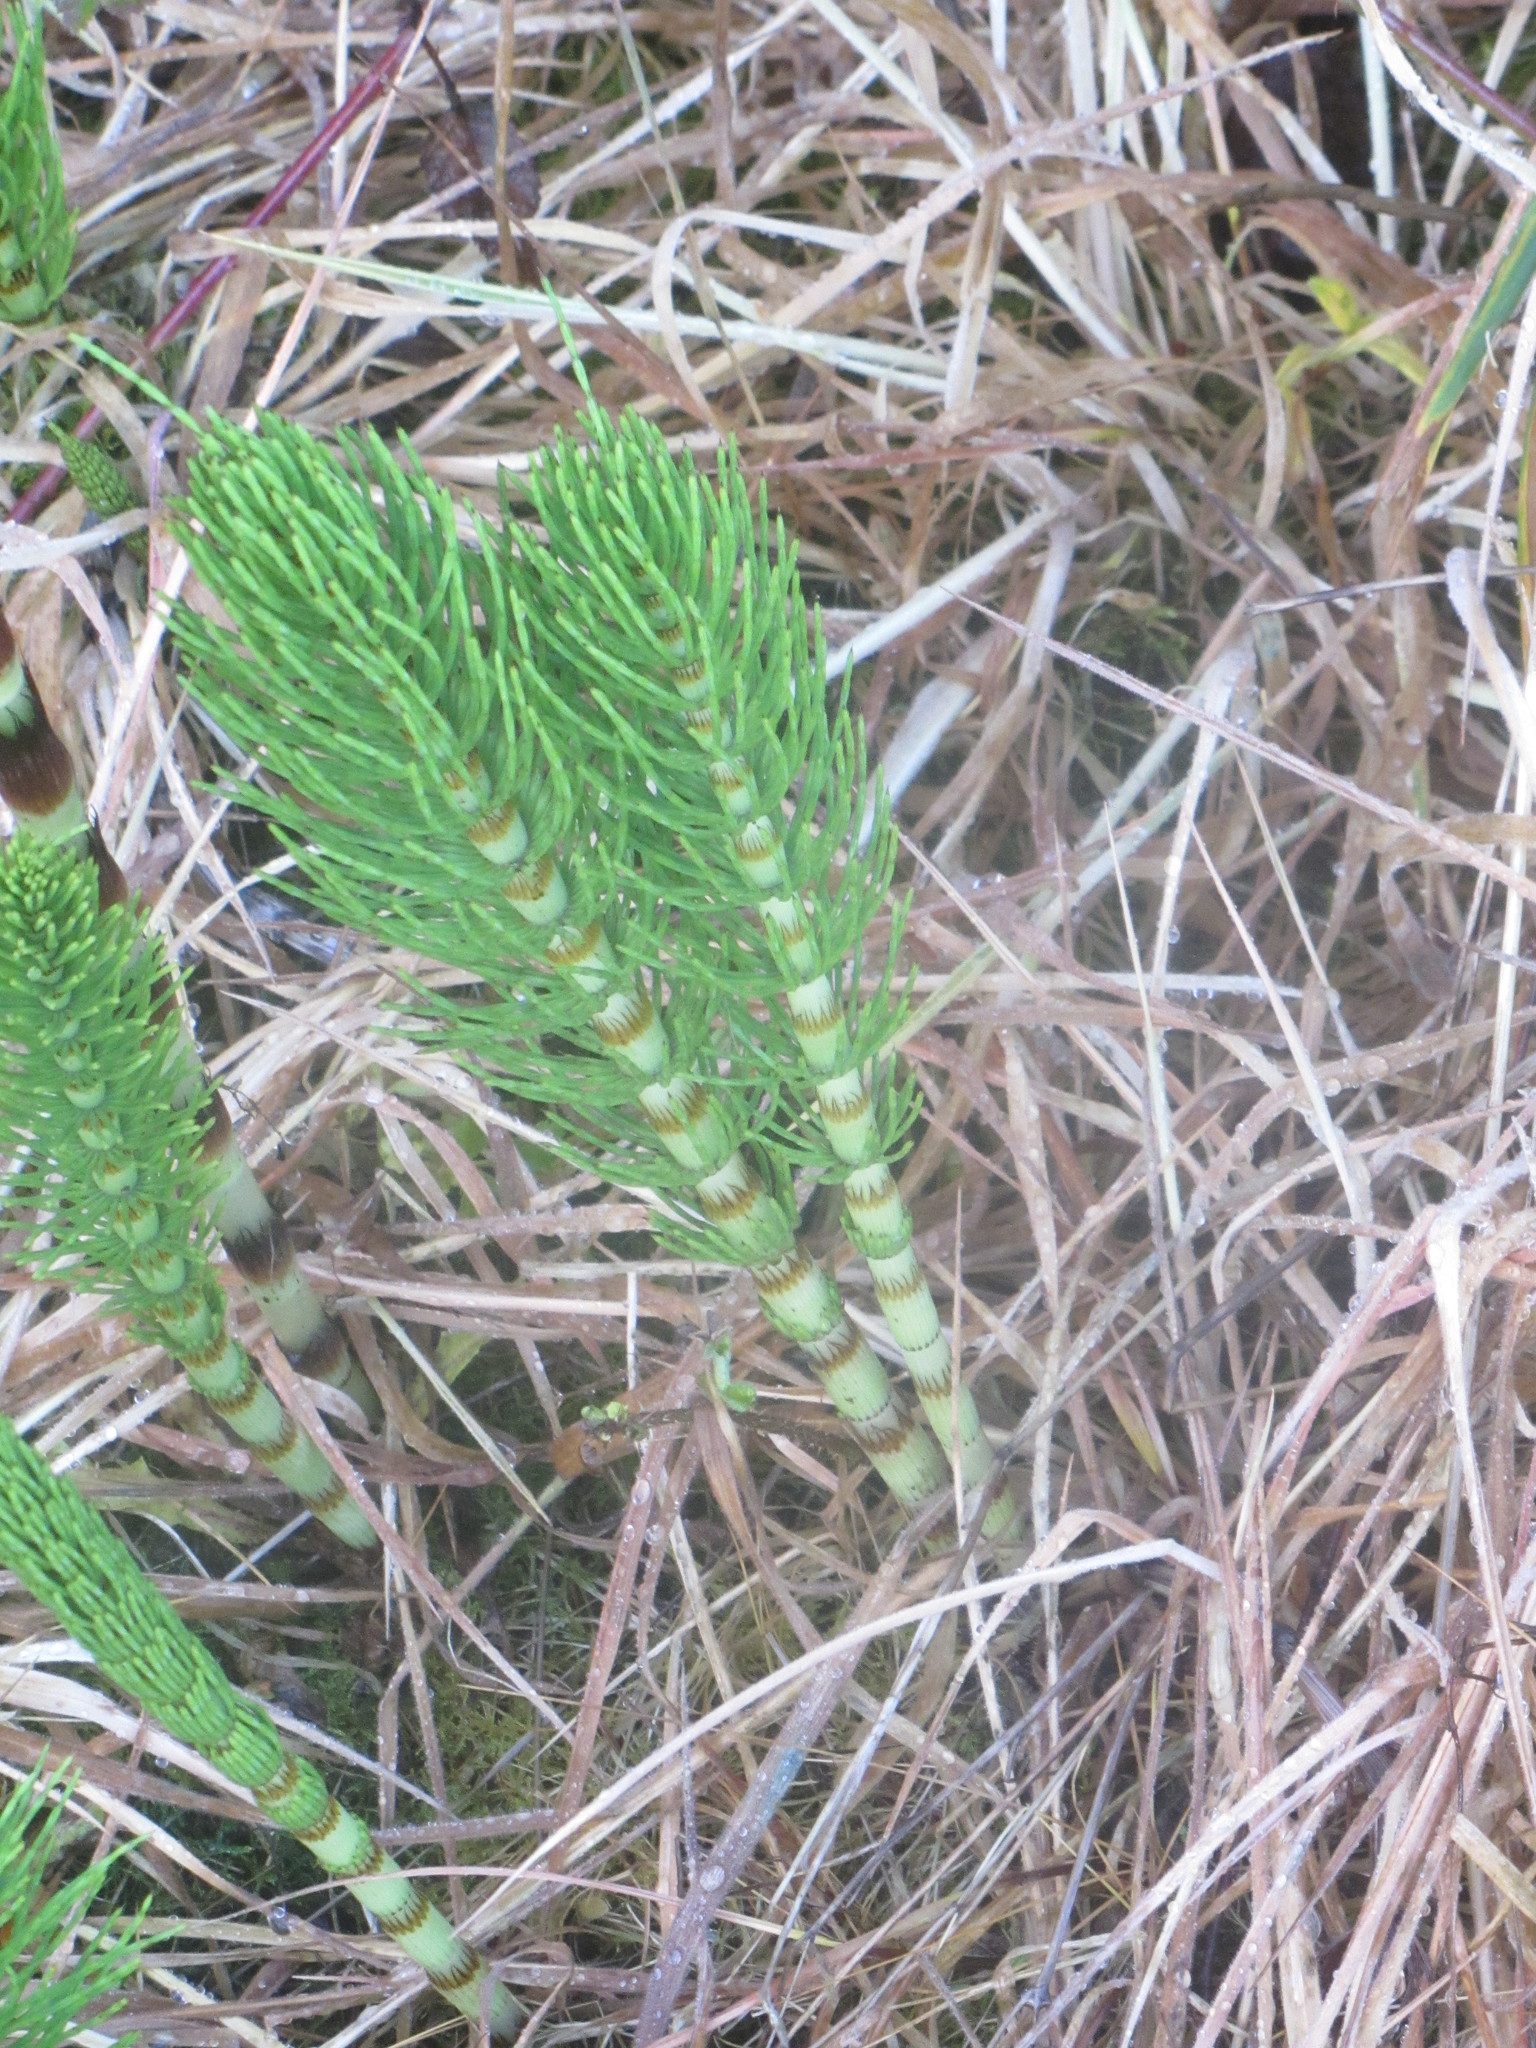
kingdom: Plantae
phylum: Tracheophyta
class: Polypodiopsida
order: Equisetales
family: Equisetaceae
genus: Equisetum
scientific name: Equisetum telmateia
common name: Great horsetail
